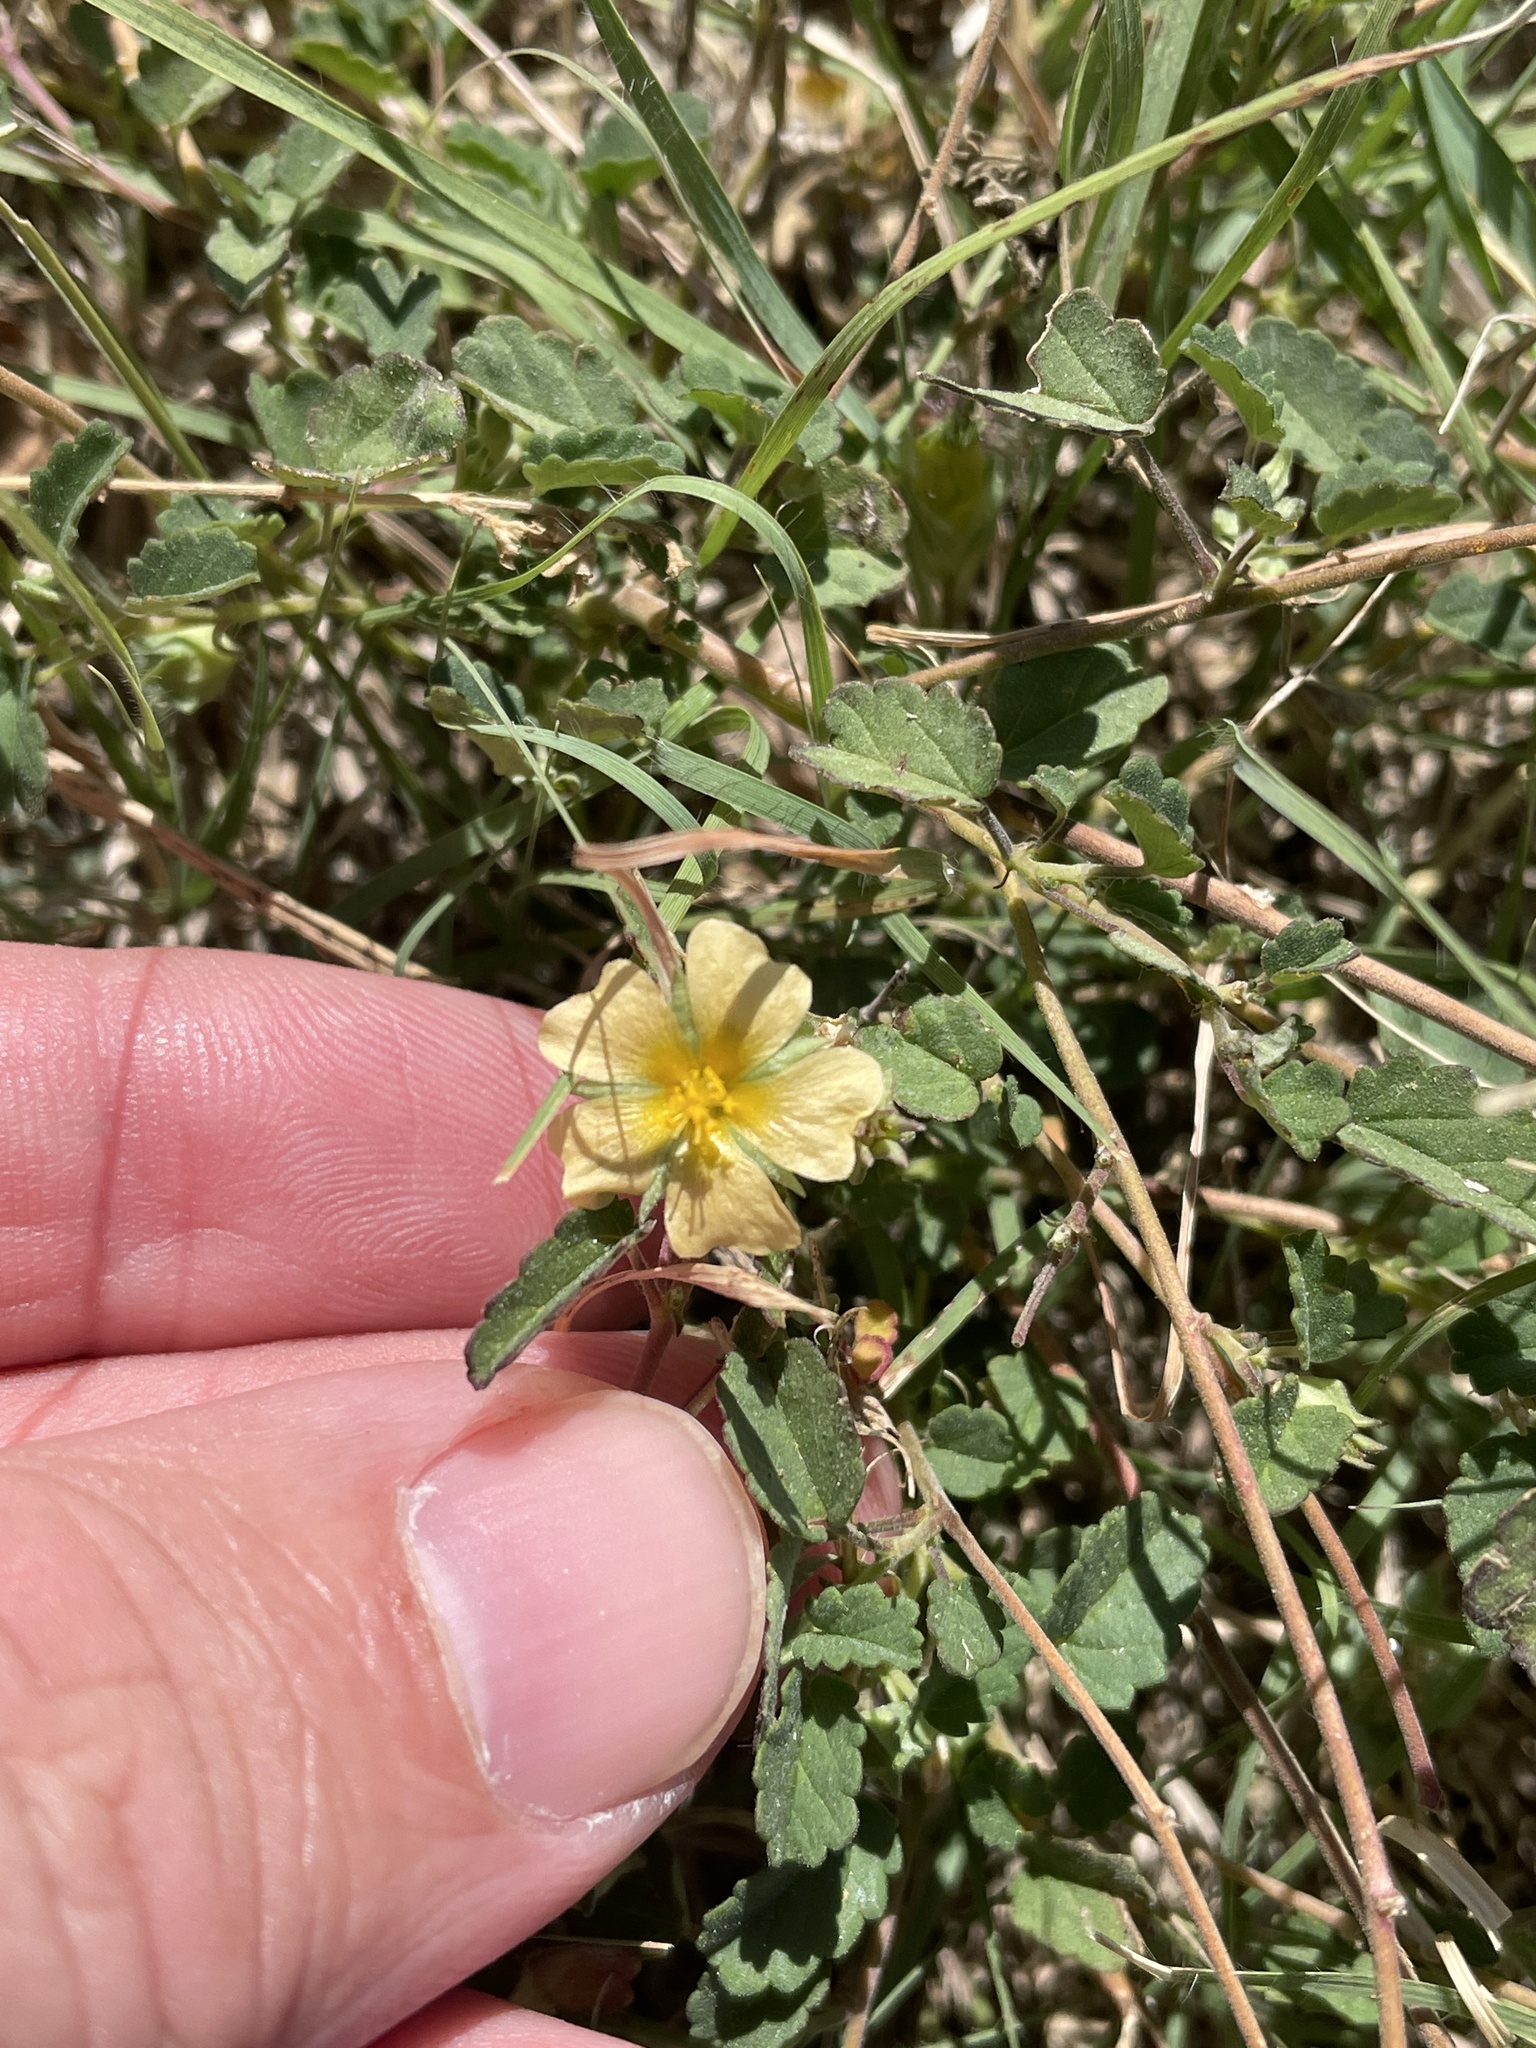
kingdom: Plantae
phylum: Tracheophyta
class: Magnoliopsida
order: Malvales
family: Malvaceae
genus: Sida
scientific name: Sida abutilifolia
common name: Spreading fanpetals
